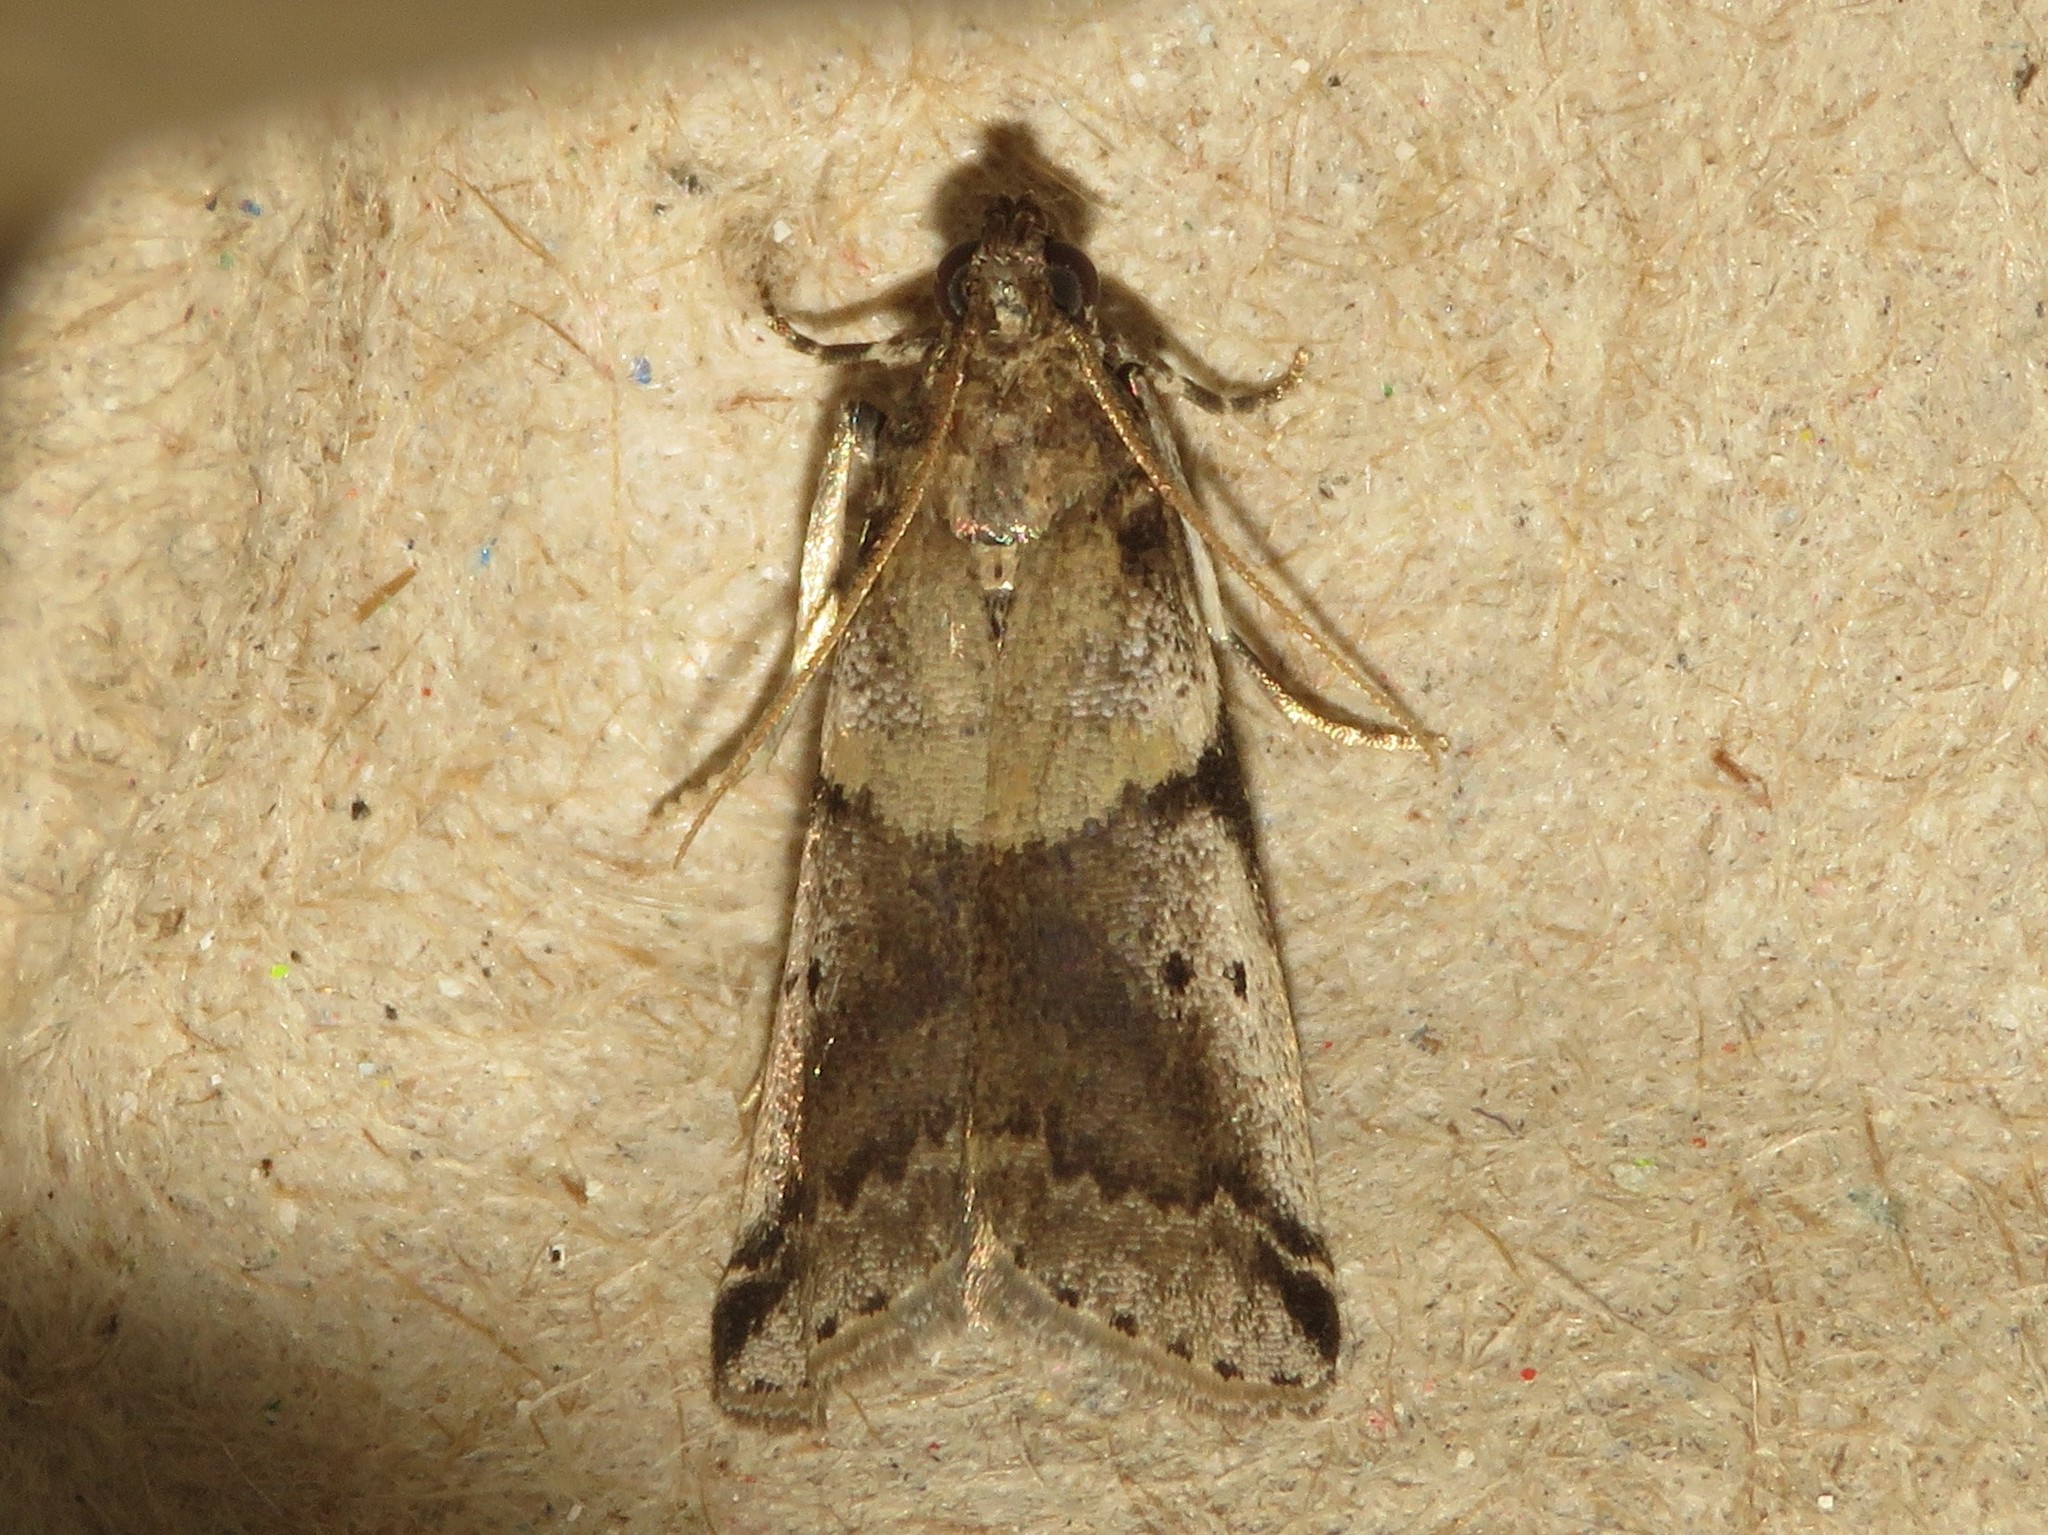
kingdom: Animalia
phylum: Arthropoda
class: Insecta
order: Lepidoptera
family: Pyralidae
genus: Acrobasis
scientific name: Acrobasis indigenella
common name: Leaf crumpler moth
